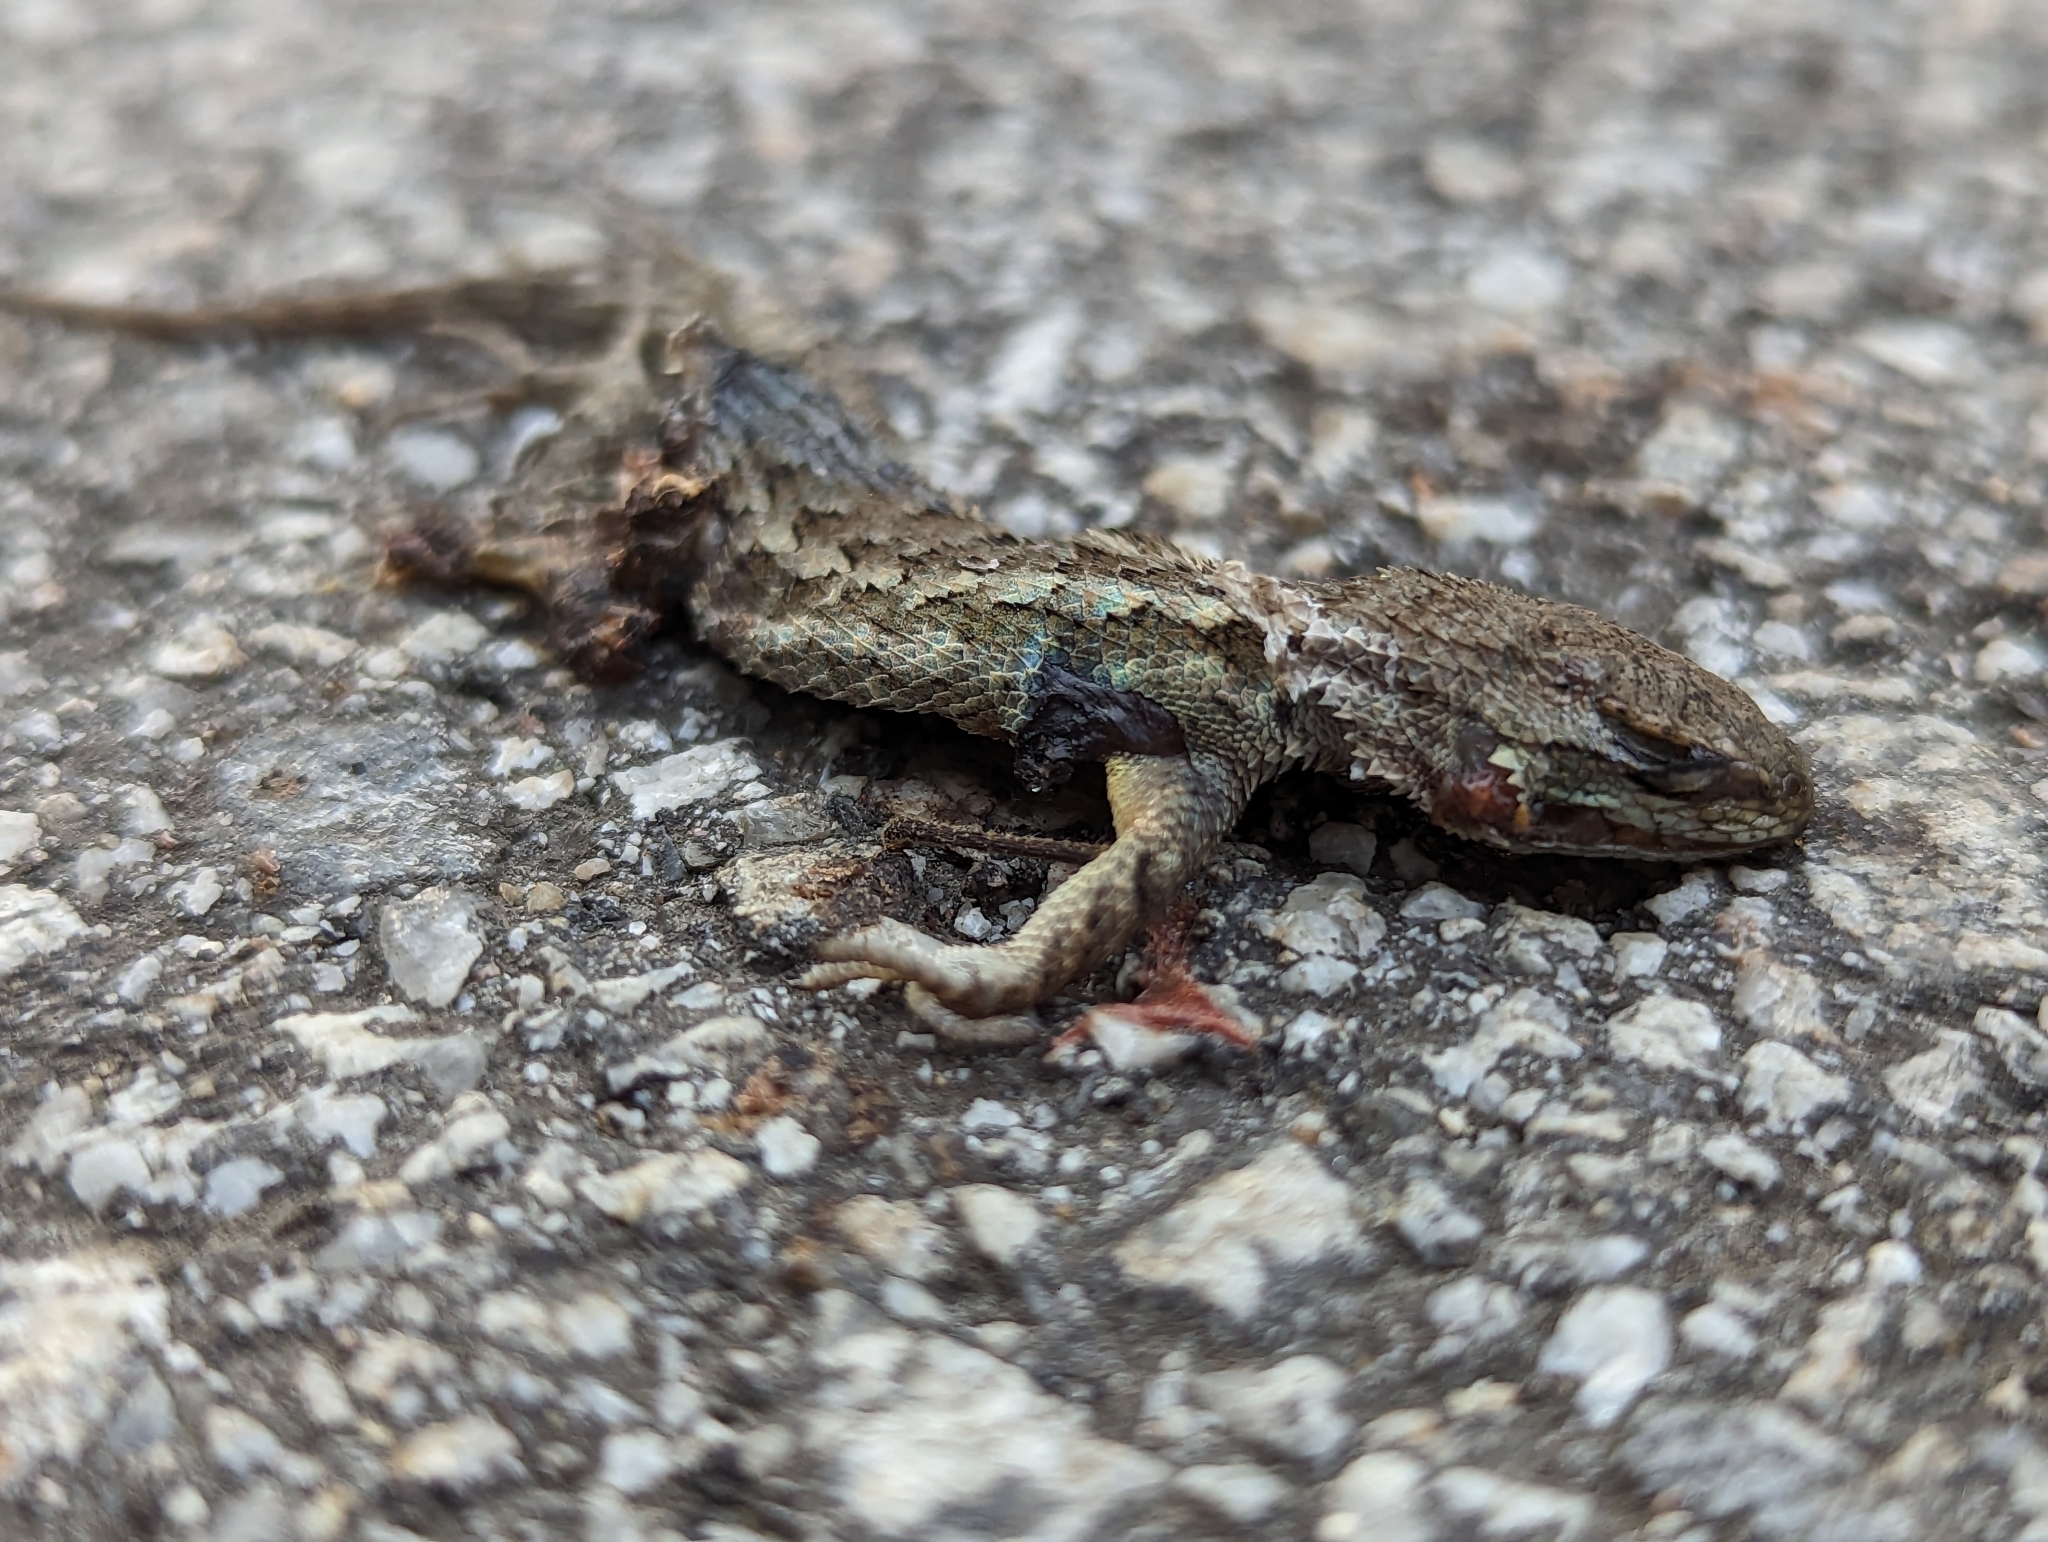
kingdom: Animalia
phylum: Chordata
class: Squamata
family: Phrynosomatidae
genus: Sceloporus
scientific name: Sceloporus occidentalis
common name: Western fence lizard
